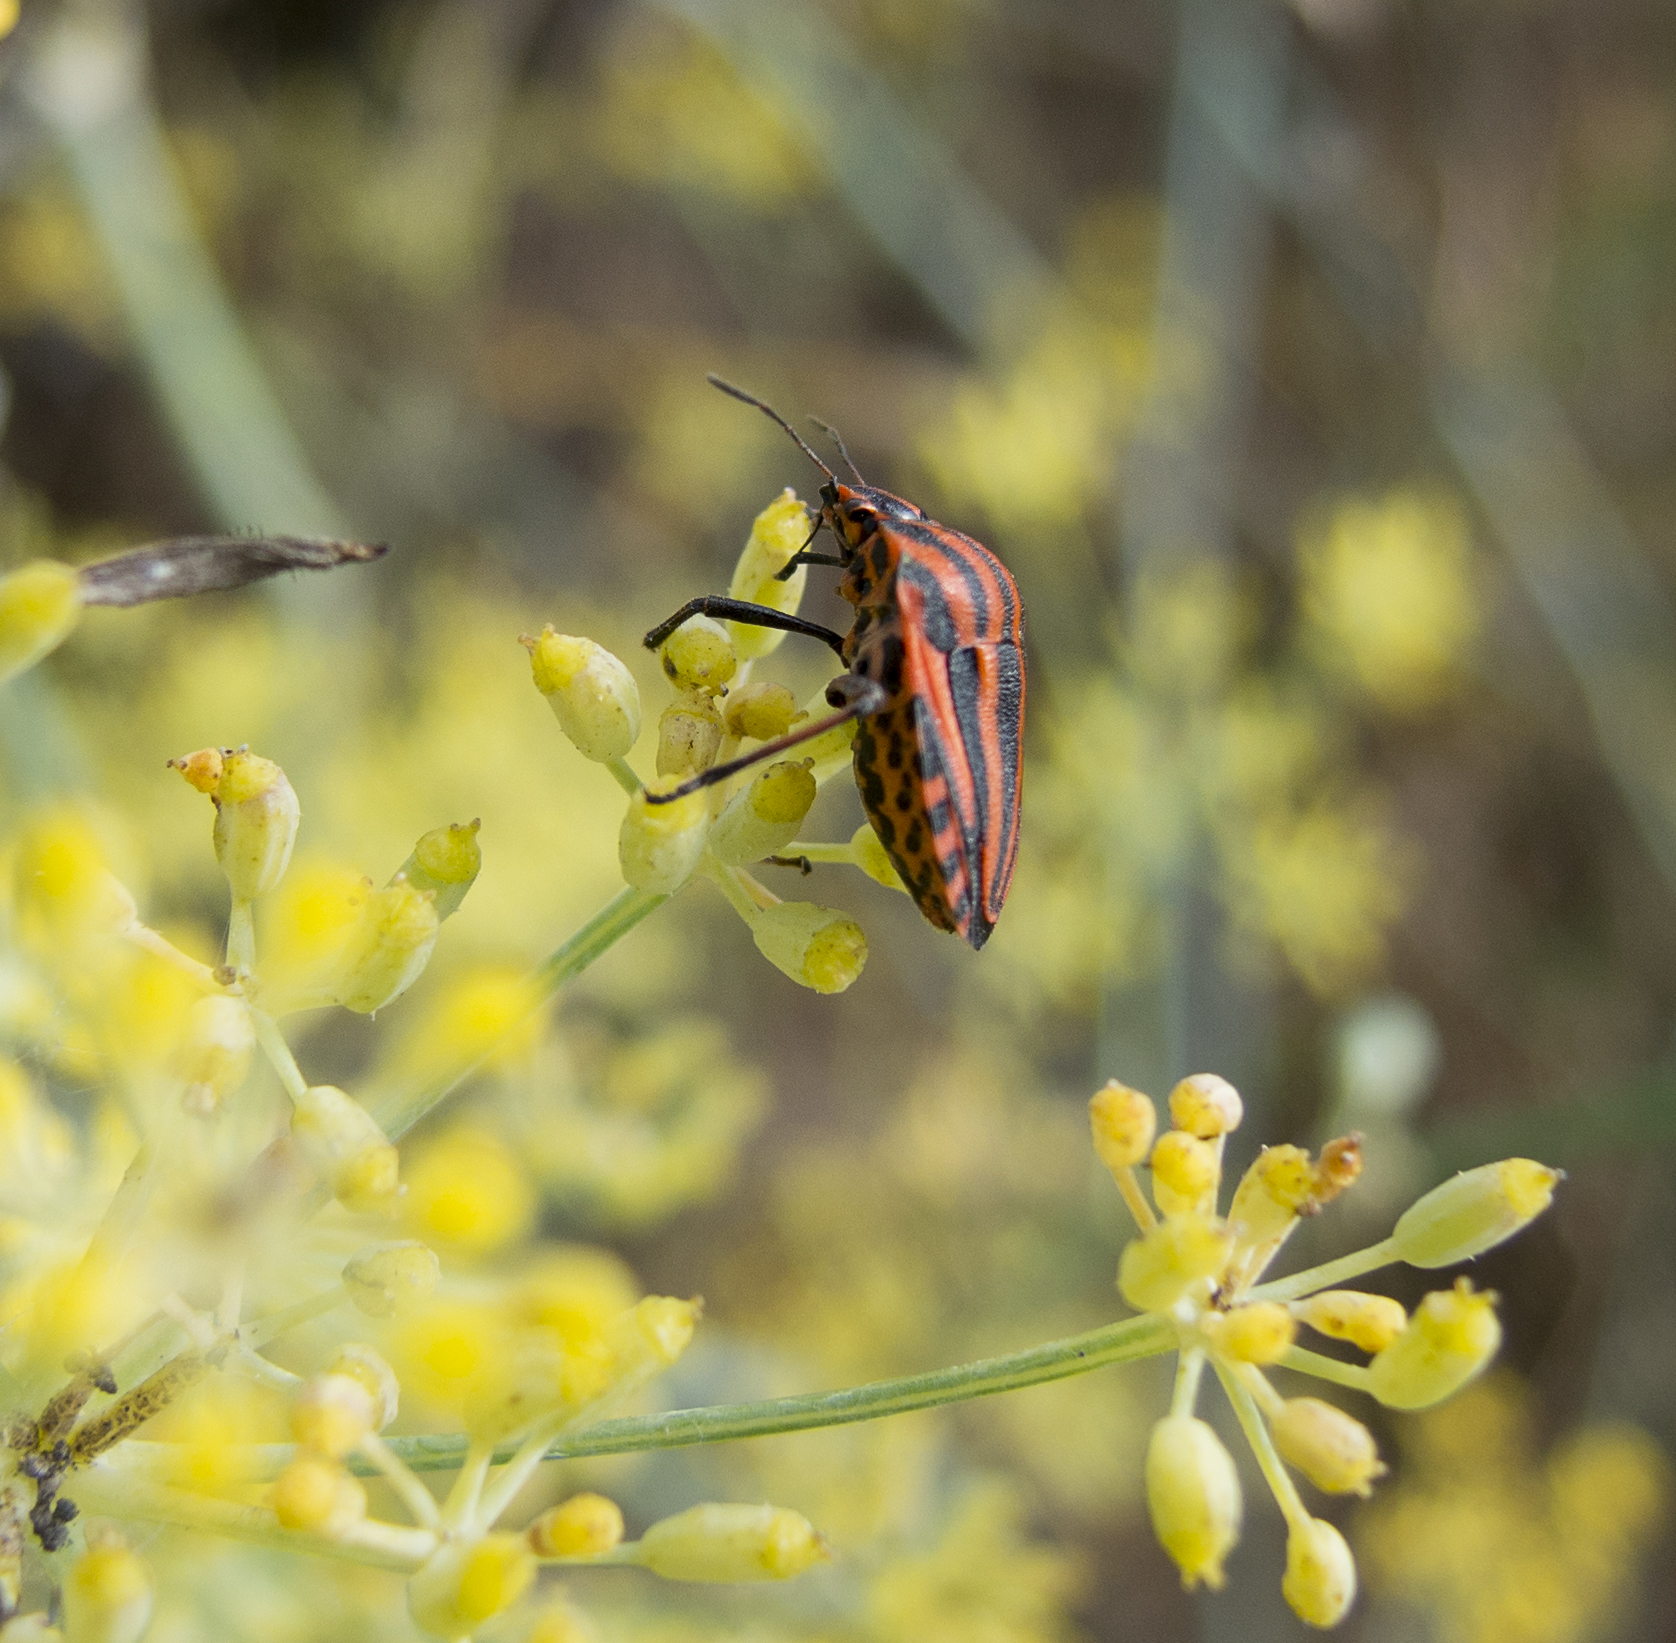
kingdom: Animalia
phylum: Arthropoda
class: Insecta
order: Hemiptera
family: Pentatomidae
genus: Graphosoma
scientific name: Graphosoma italicum
